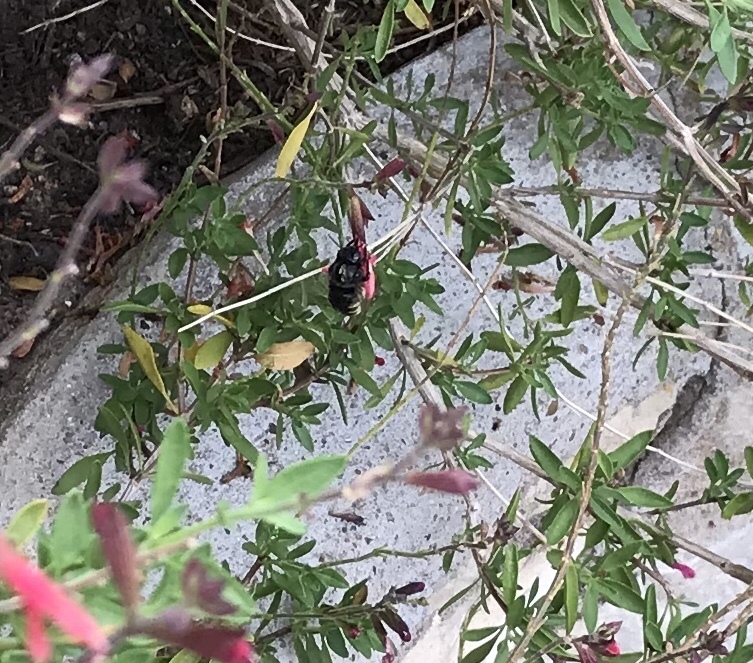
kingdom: Animalia
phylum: Arthropoda
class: Insecta
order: Hymenoptera
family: Apidae
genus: Xylocopa
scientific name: Xylocopa tabaniformis
